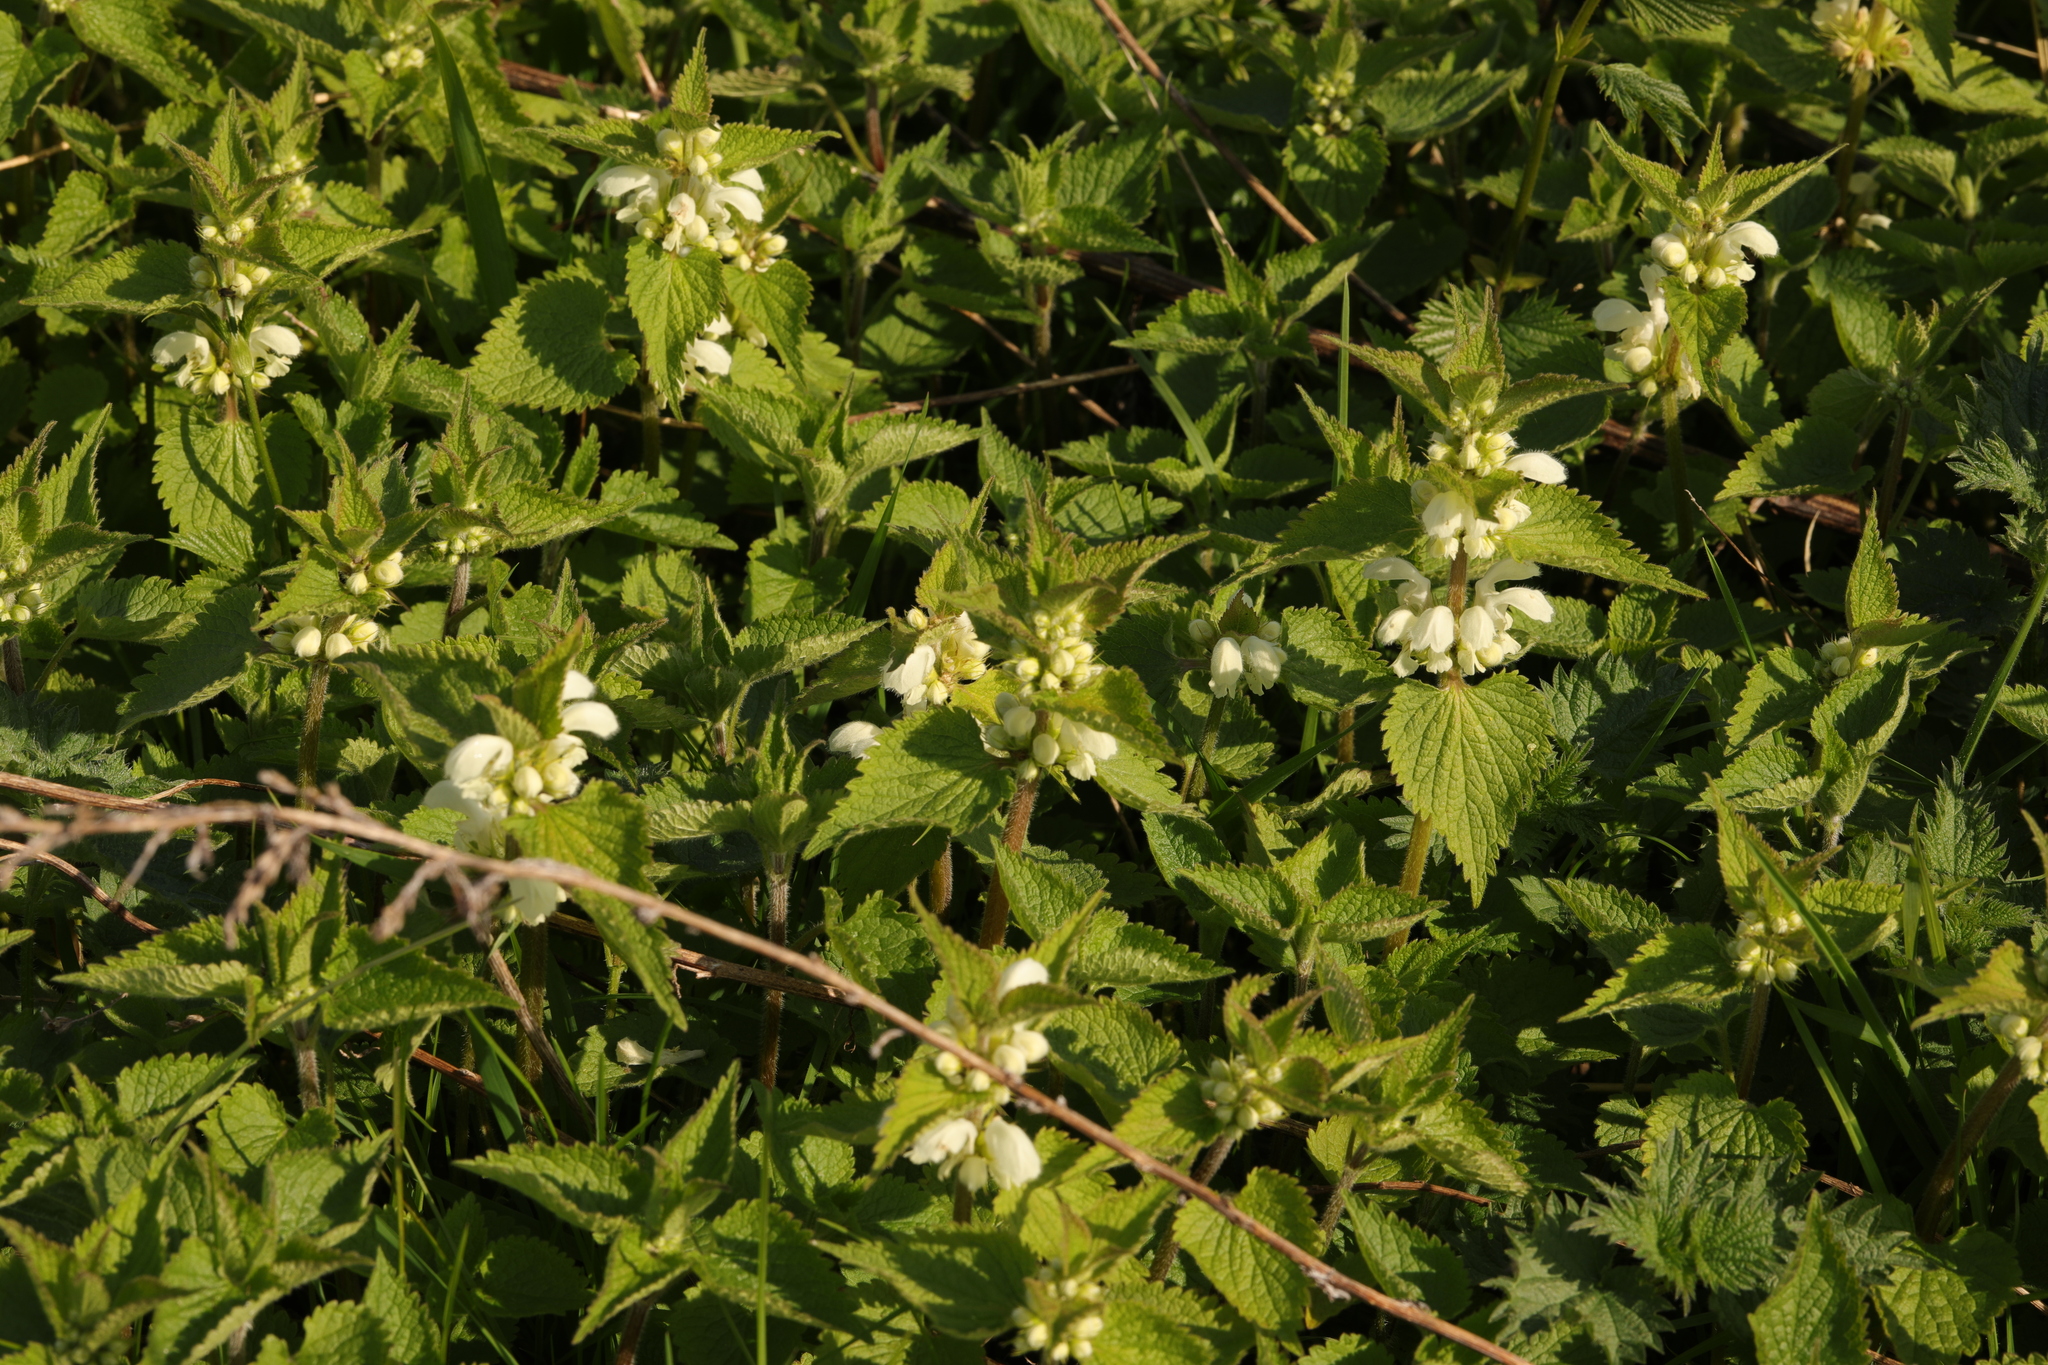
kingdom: Plantae
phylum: Tracheophyta
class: Magnoliopsida
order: Lamiales
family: Lamiaceae
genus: Lamium
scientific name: Lamium album
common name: White dead-nettle
